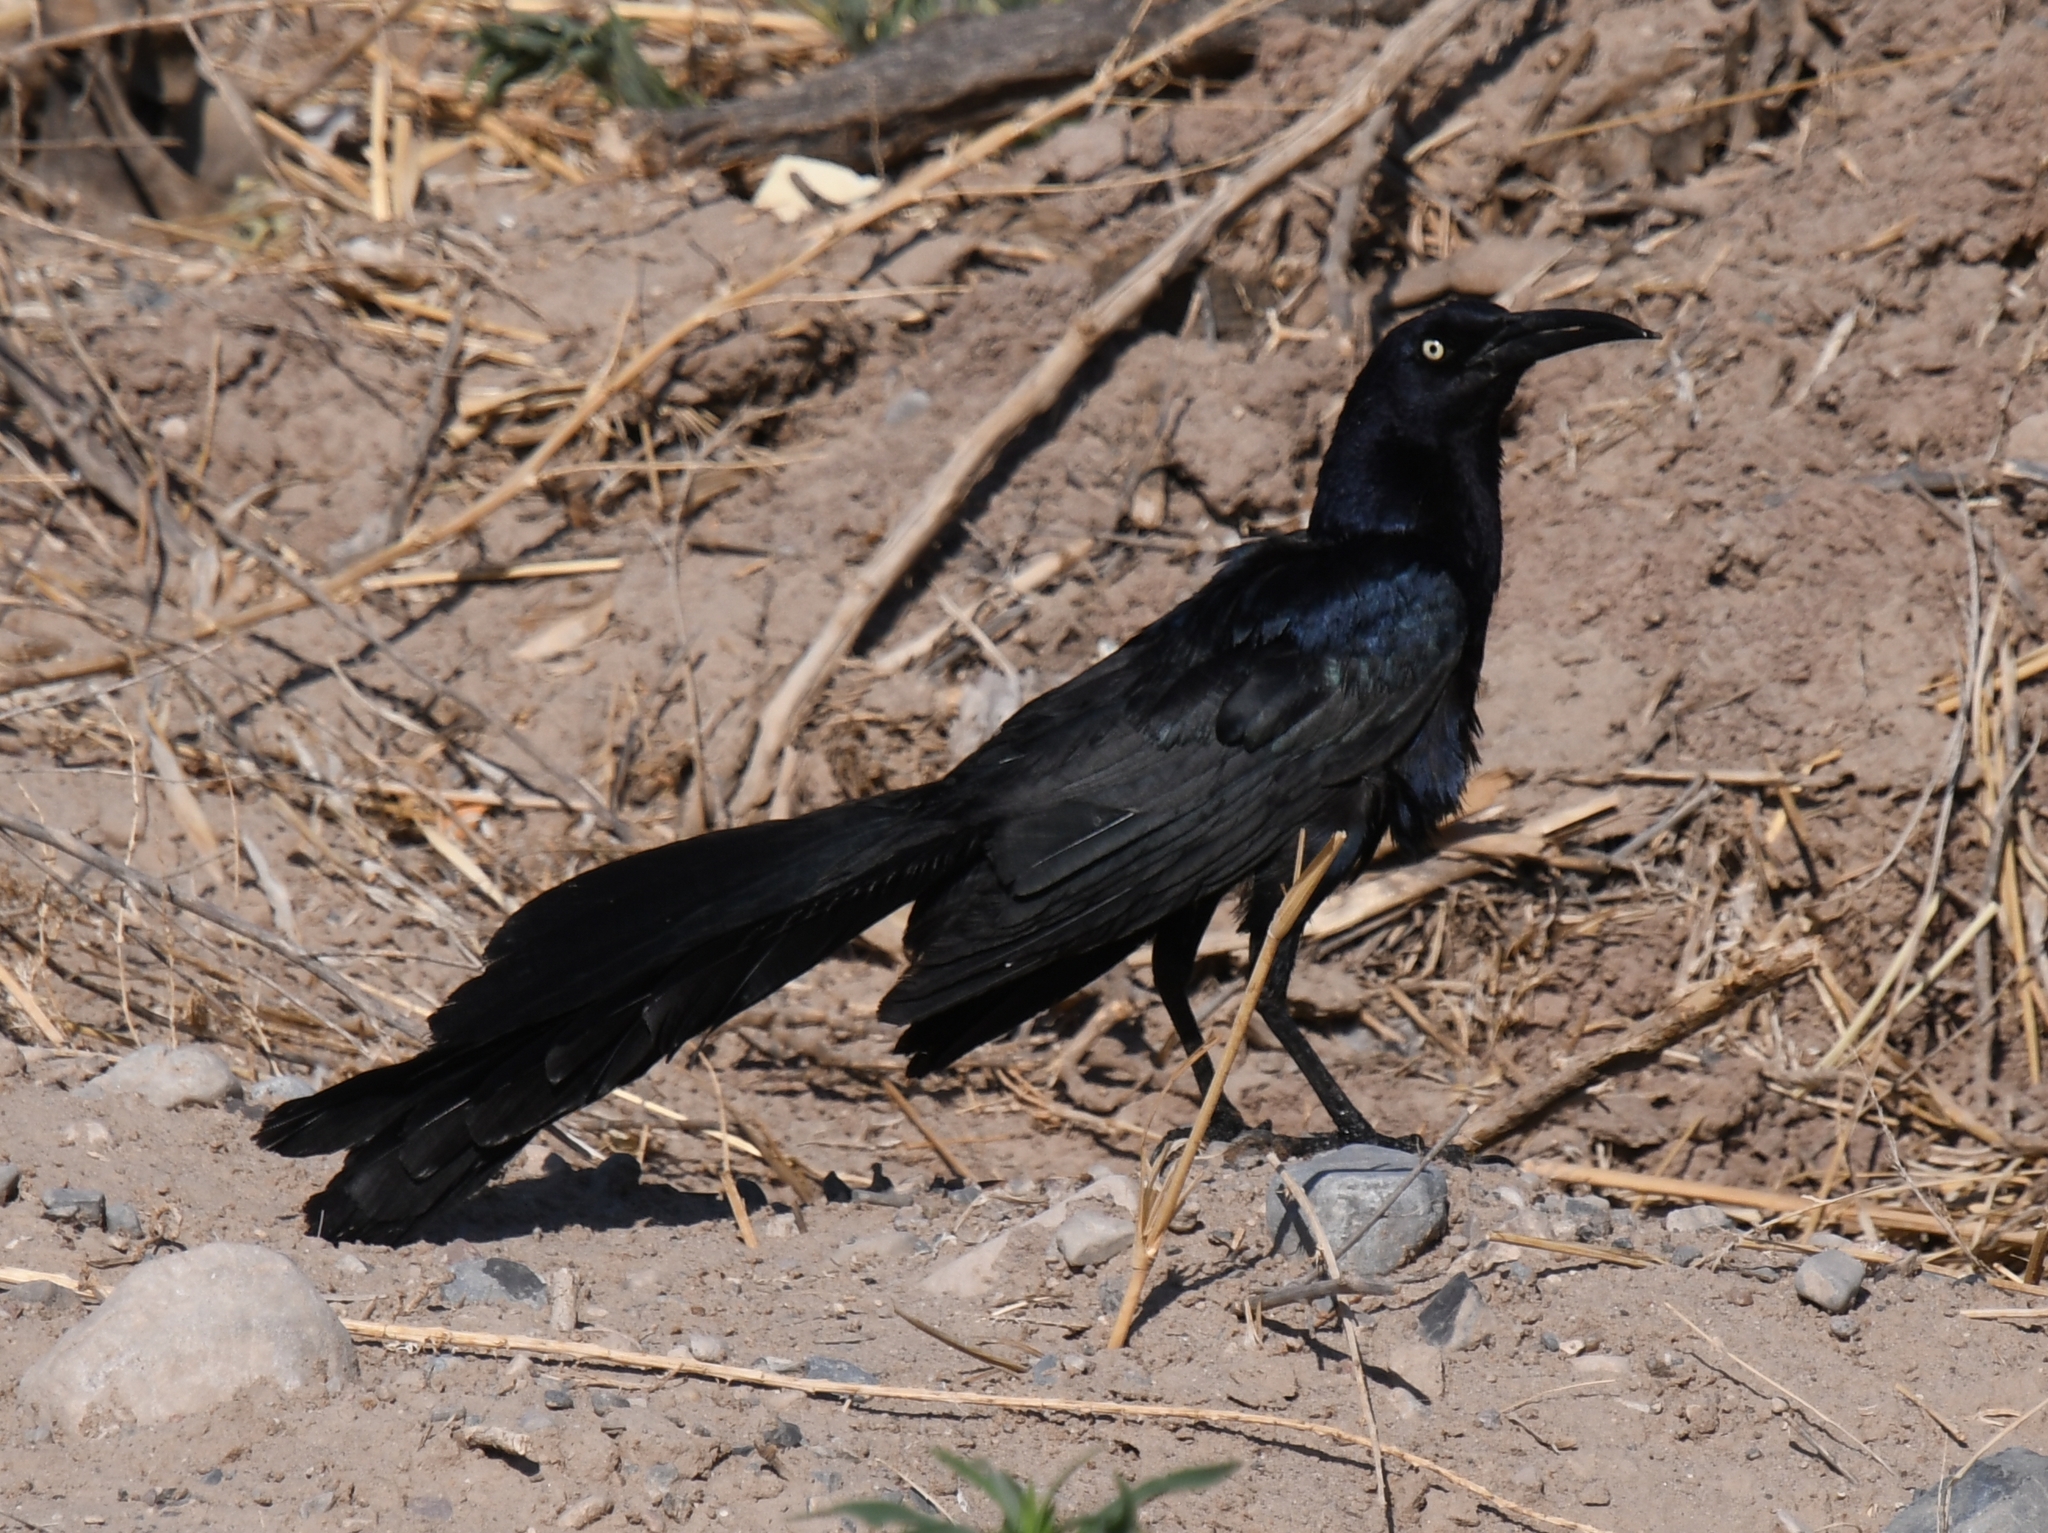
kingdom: Animalia
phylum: Chordata
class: Aves
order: Passeriformes
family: Icteridae
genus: Quiscalus
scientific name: Quiscalus mexicanus
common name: Great-tailed grackle
